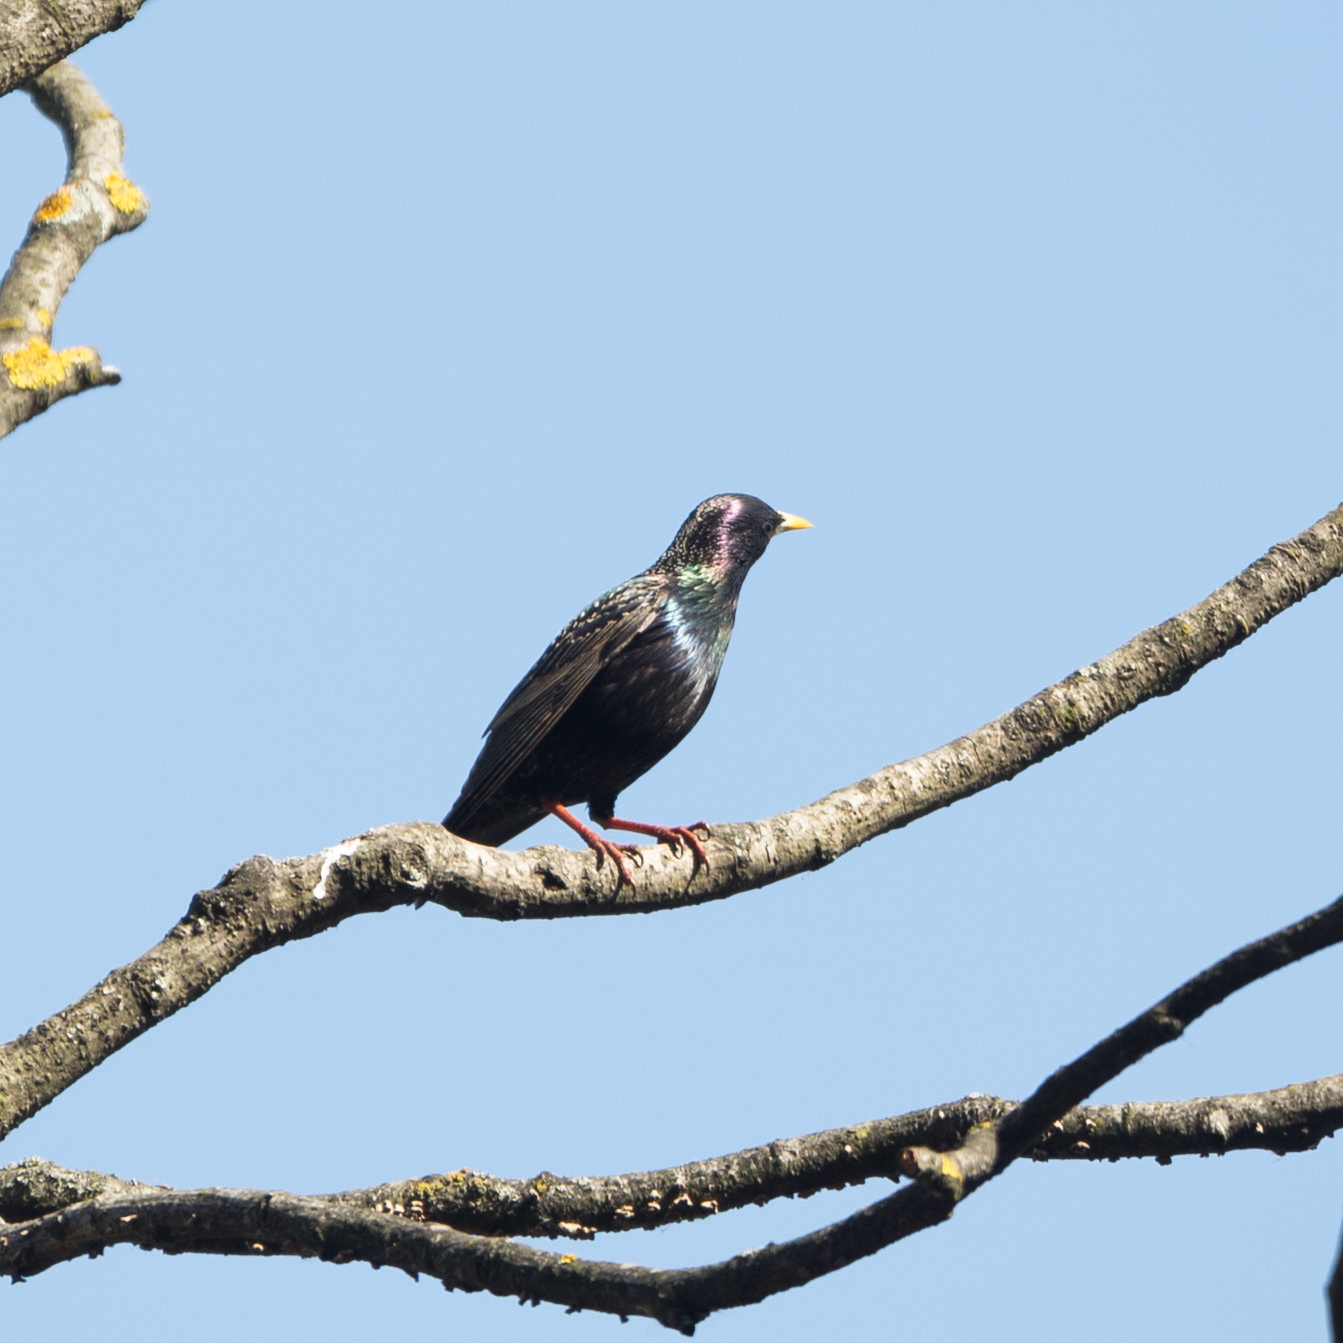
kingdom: Animalia
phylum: Chordata
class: Aves
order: Passeriformes
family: Sturnidae
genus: Sturnus
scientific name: Sturnus vulgaris
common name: Common starling
